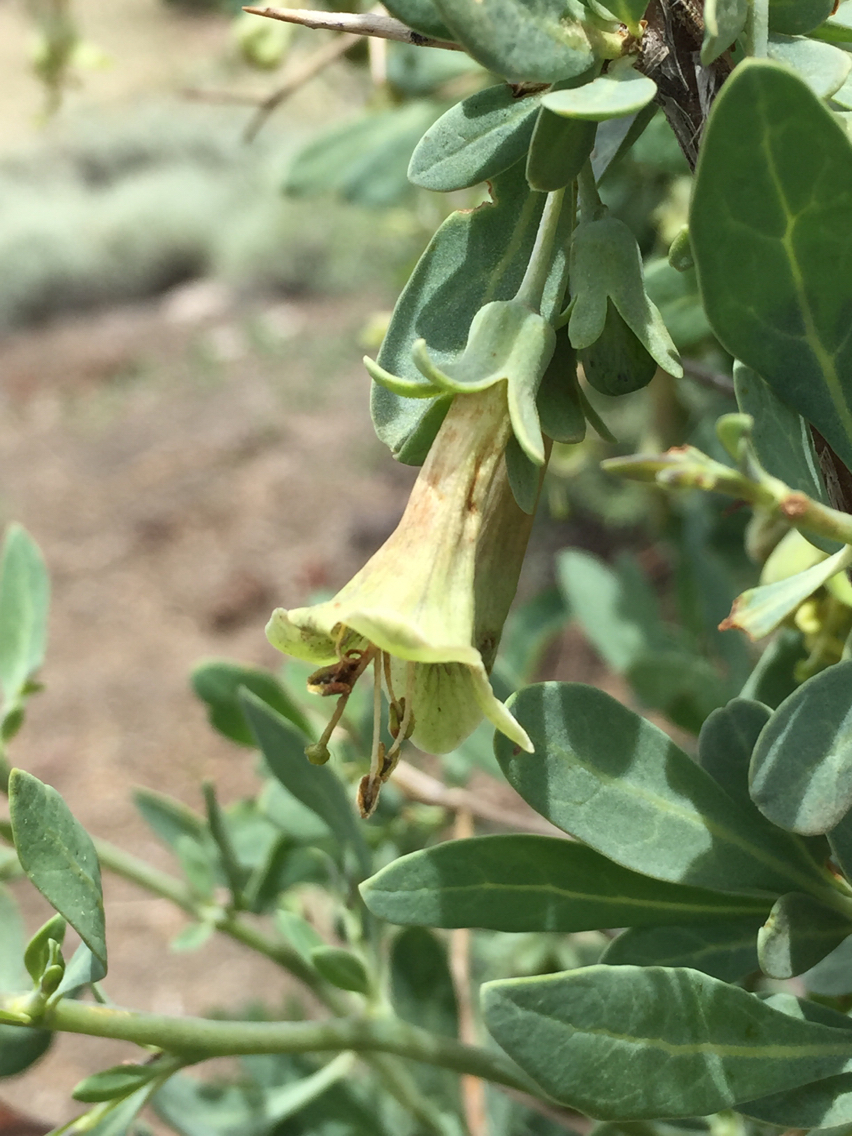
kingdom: Plantae
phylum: Tracheophyta
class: Magnoliopsida
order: Solanales
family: Solanaceae
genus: Lycium
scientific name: Lycium pallidum
